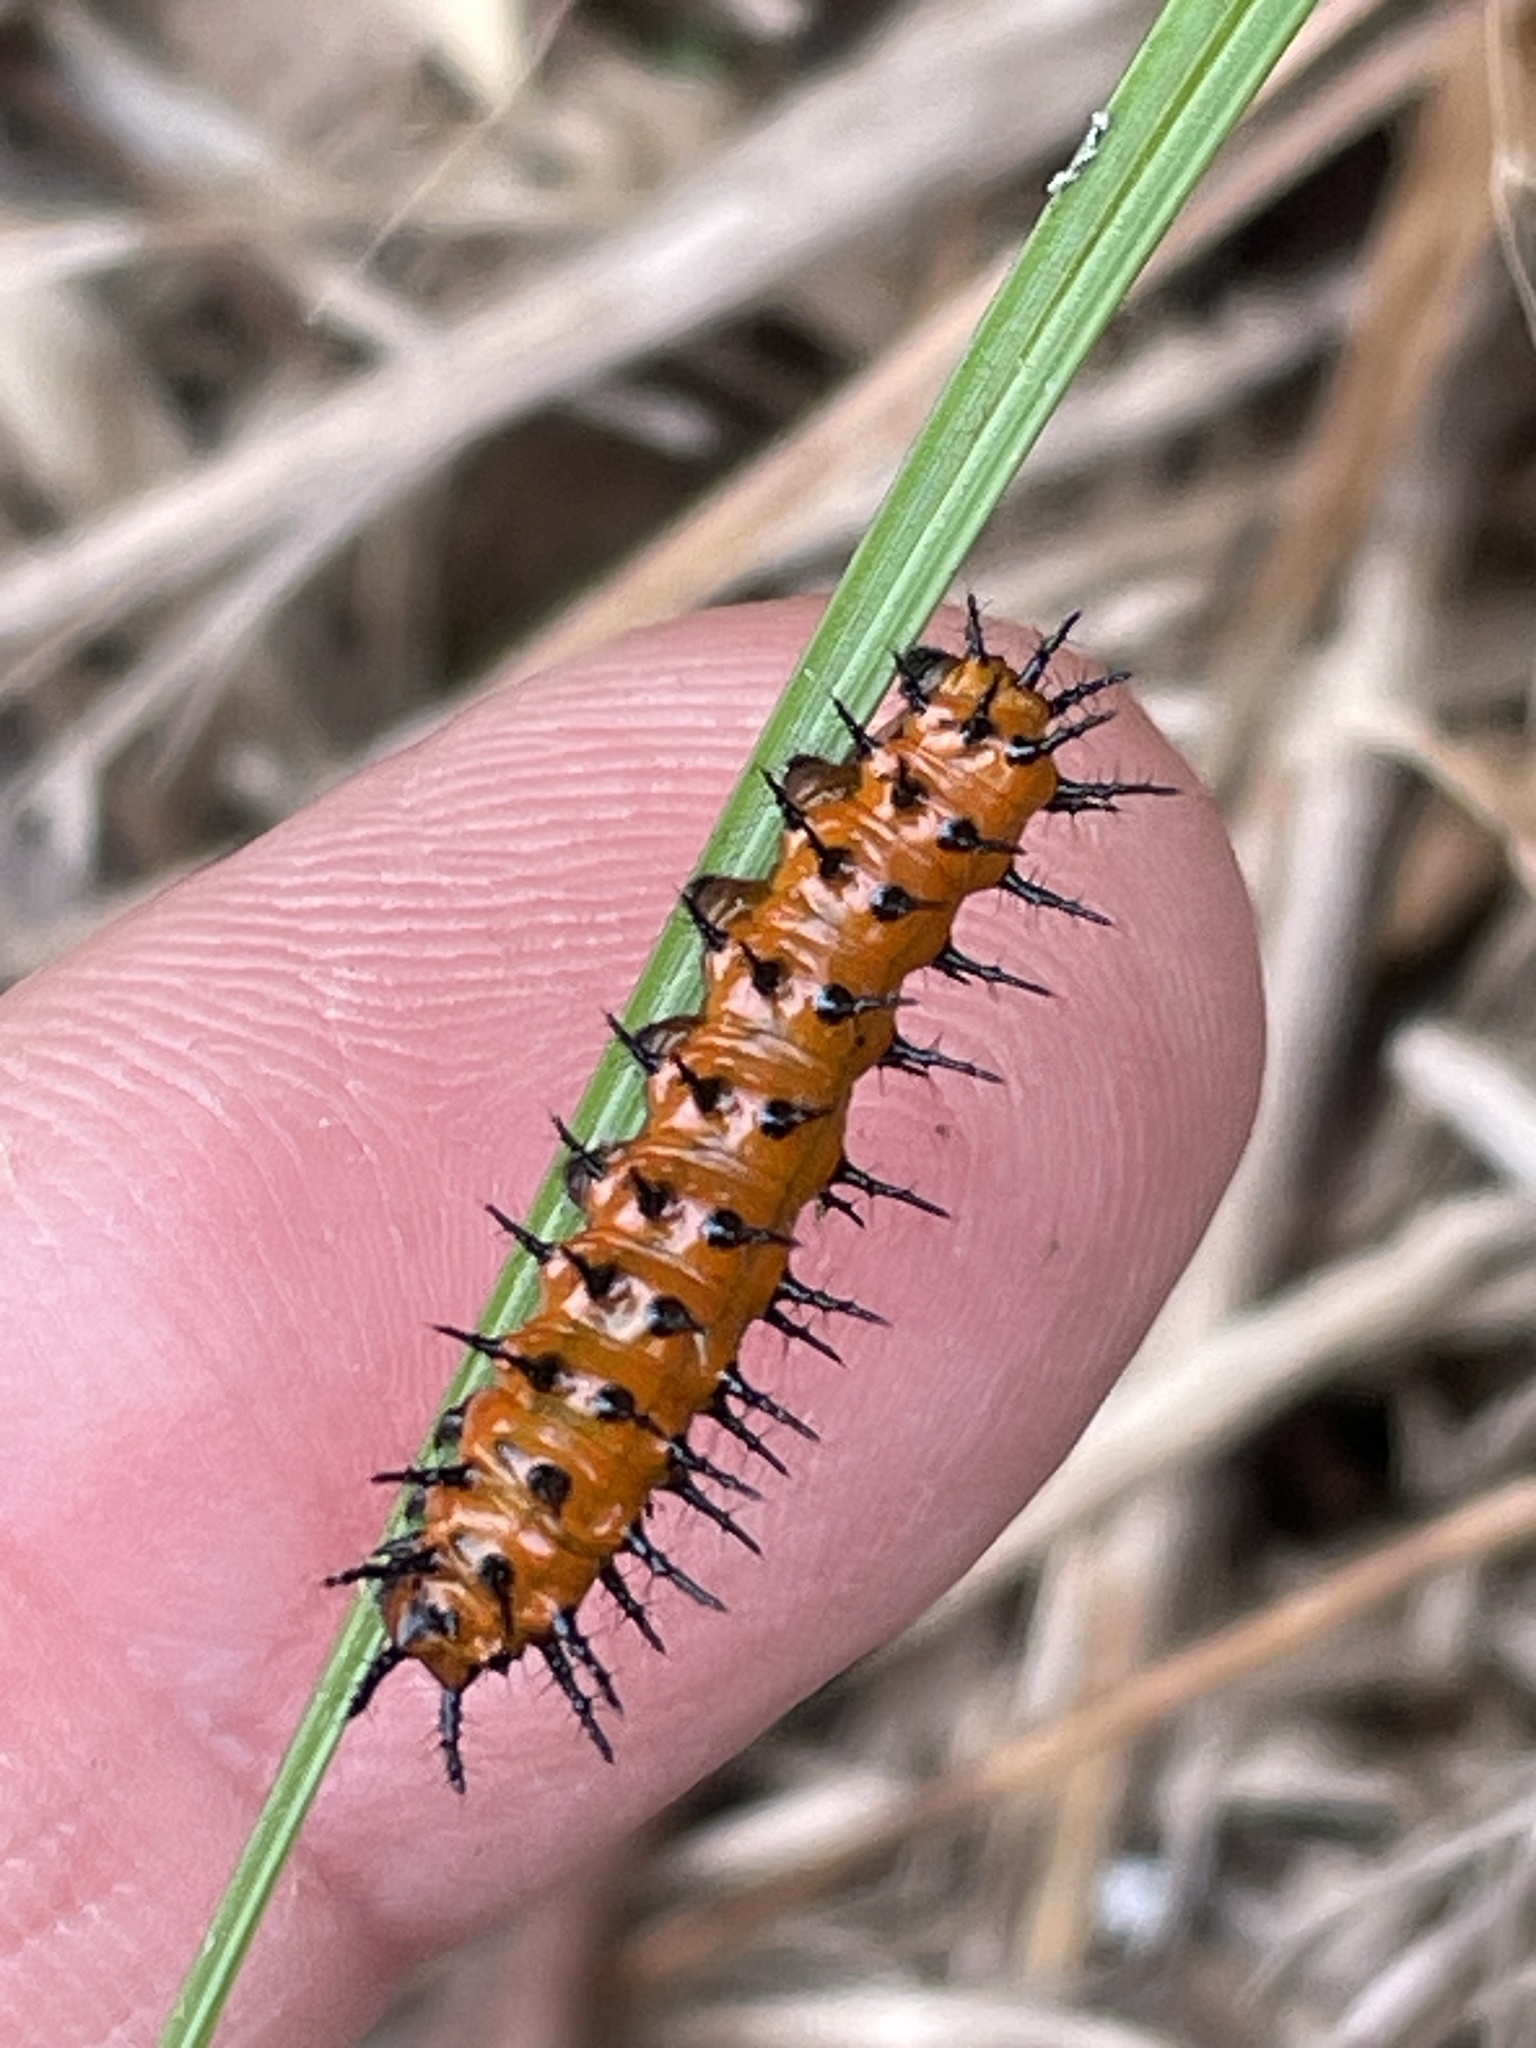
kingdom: Animalia
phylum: Arthropoda
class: Insecta
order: Lepidoptera
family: Nymphalidae
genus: Dione
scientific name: Dione vanillae
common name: Gulf fritillary
